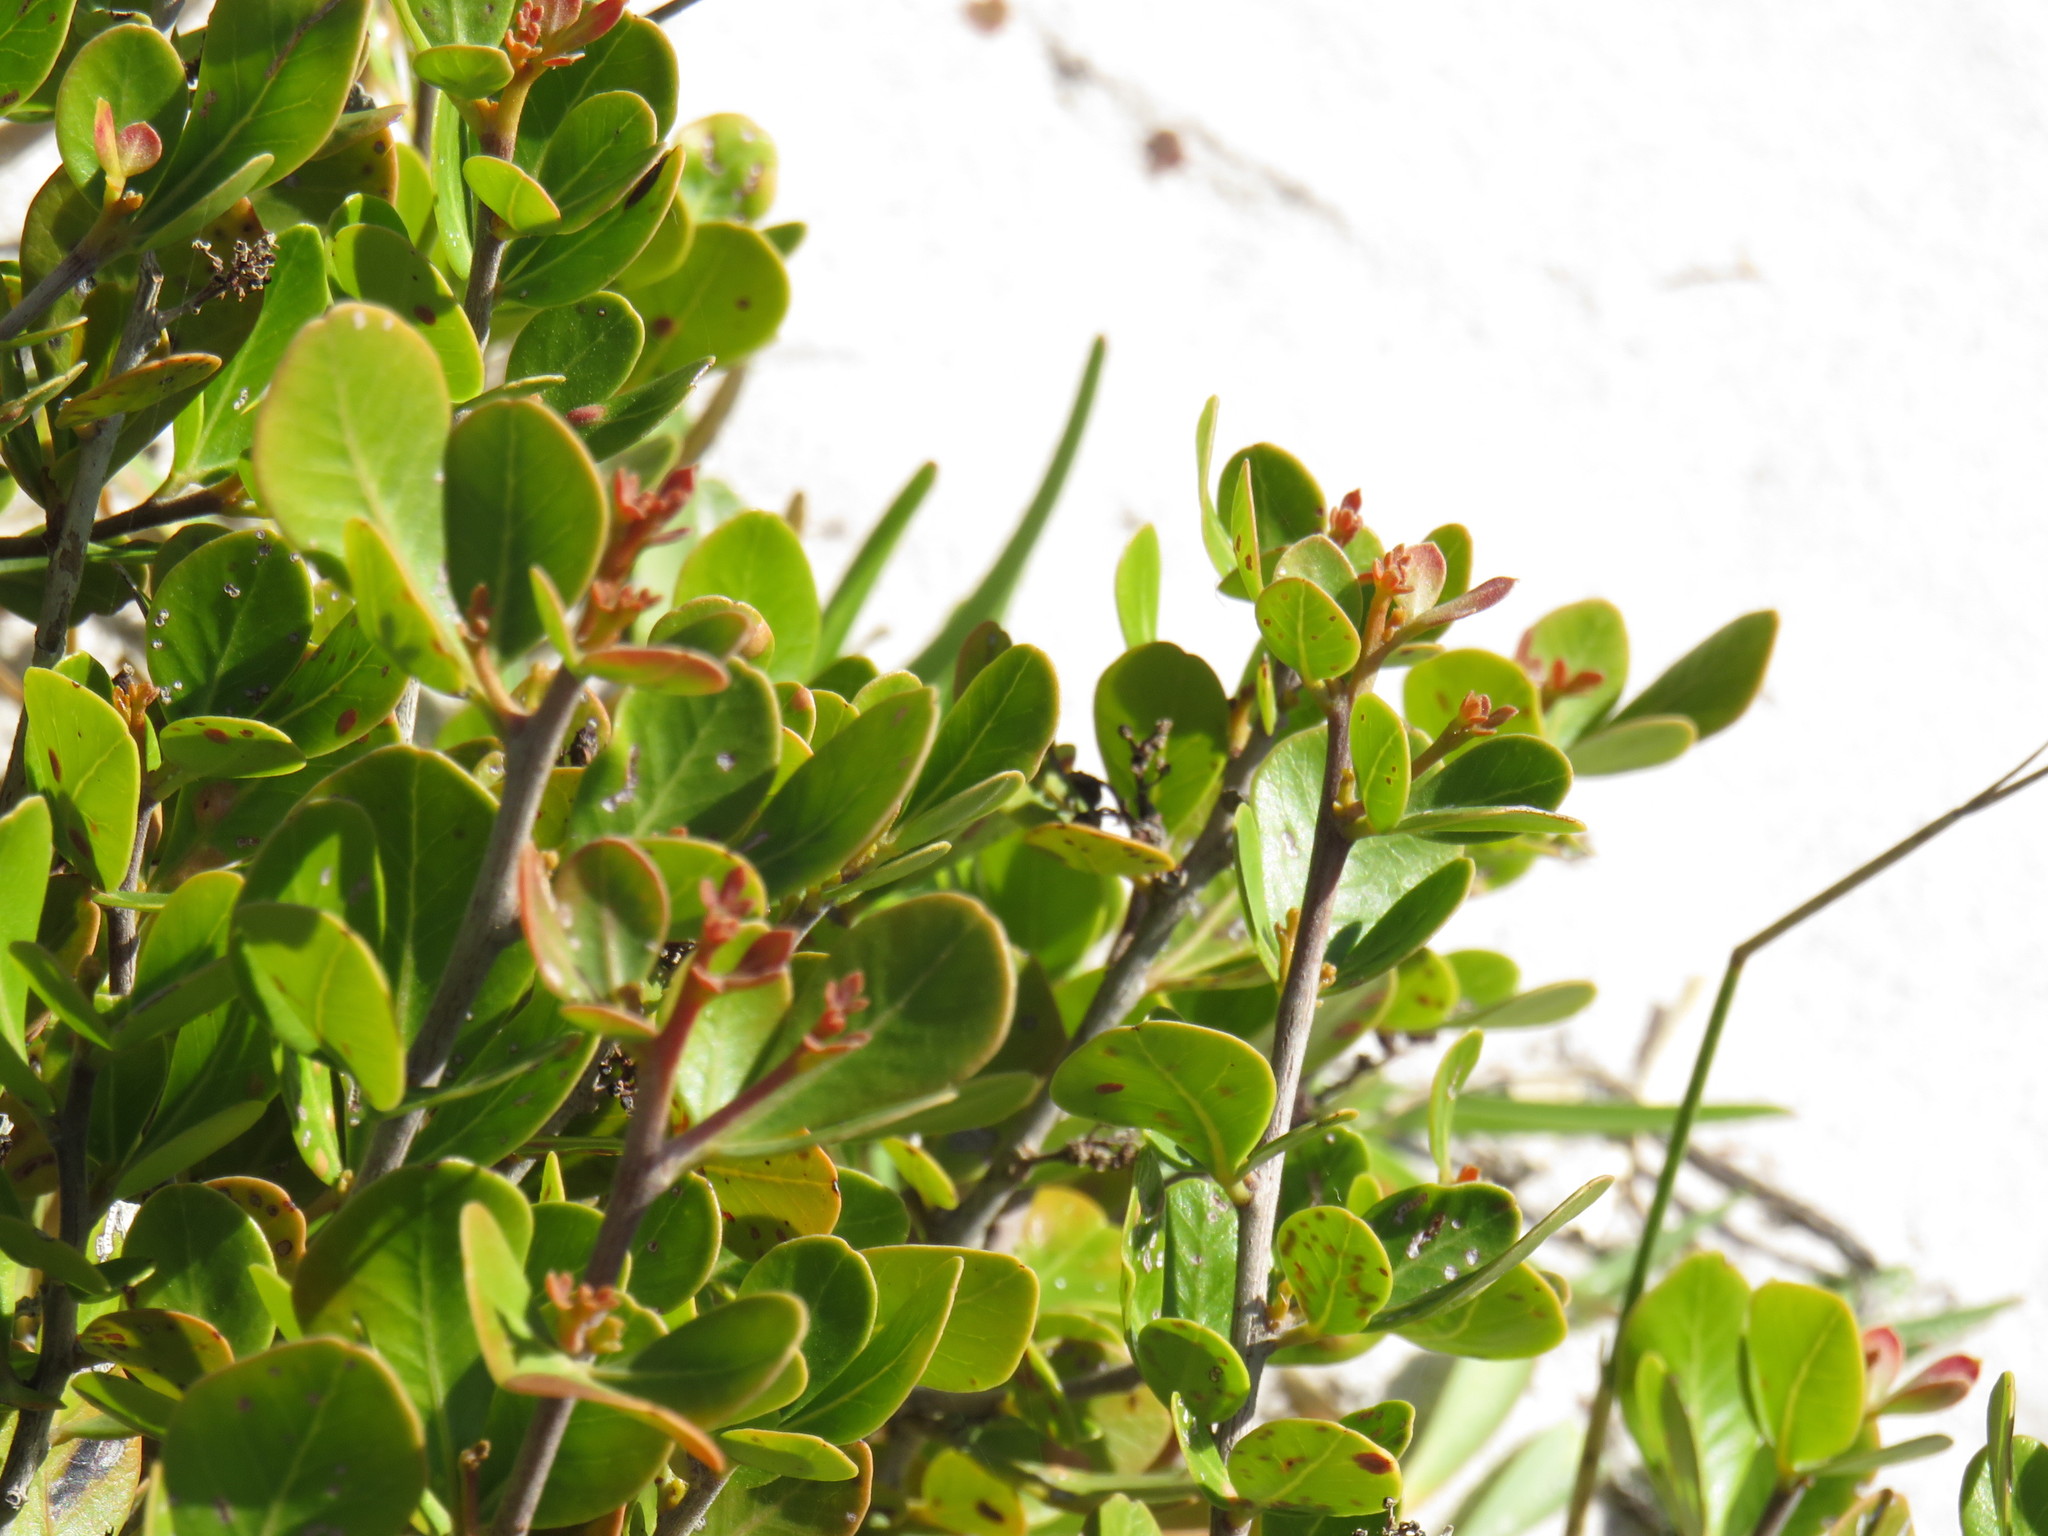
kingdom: Plantae
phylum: Tracheophyta
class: Magnoliopsida
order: Sapindales
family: Anacardiaceae
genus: Searsia
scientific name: Searsia lucida
